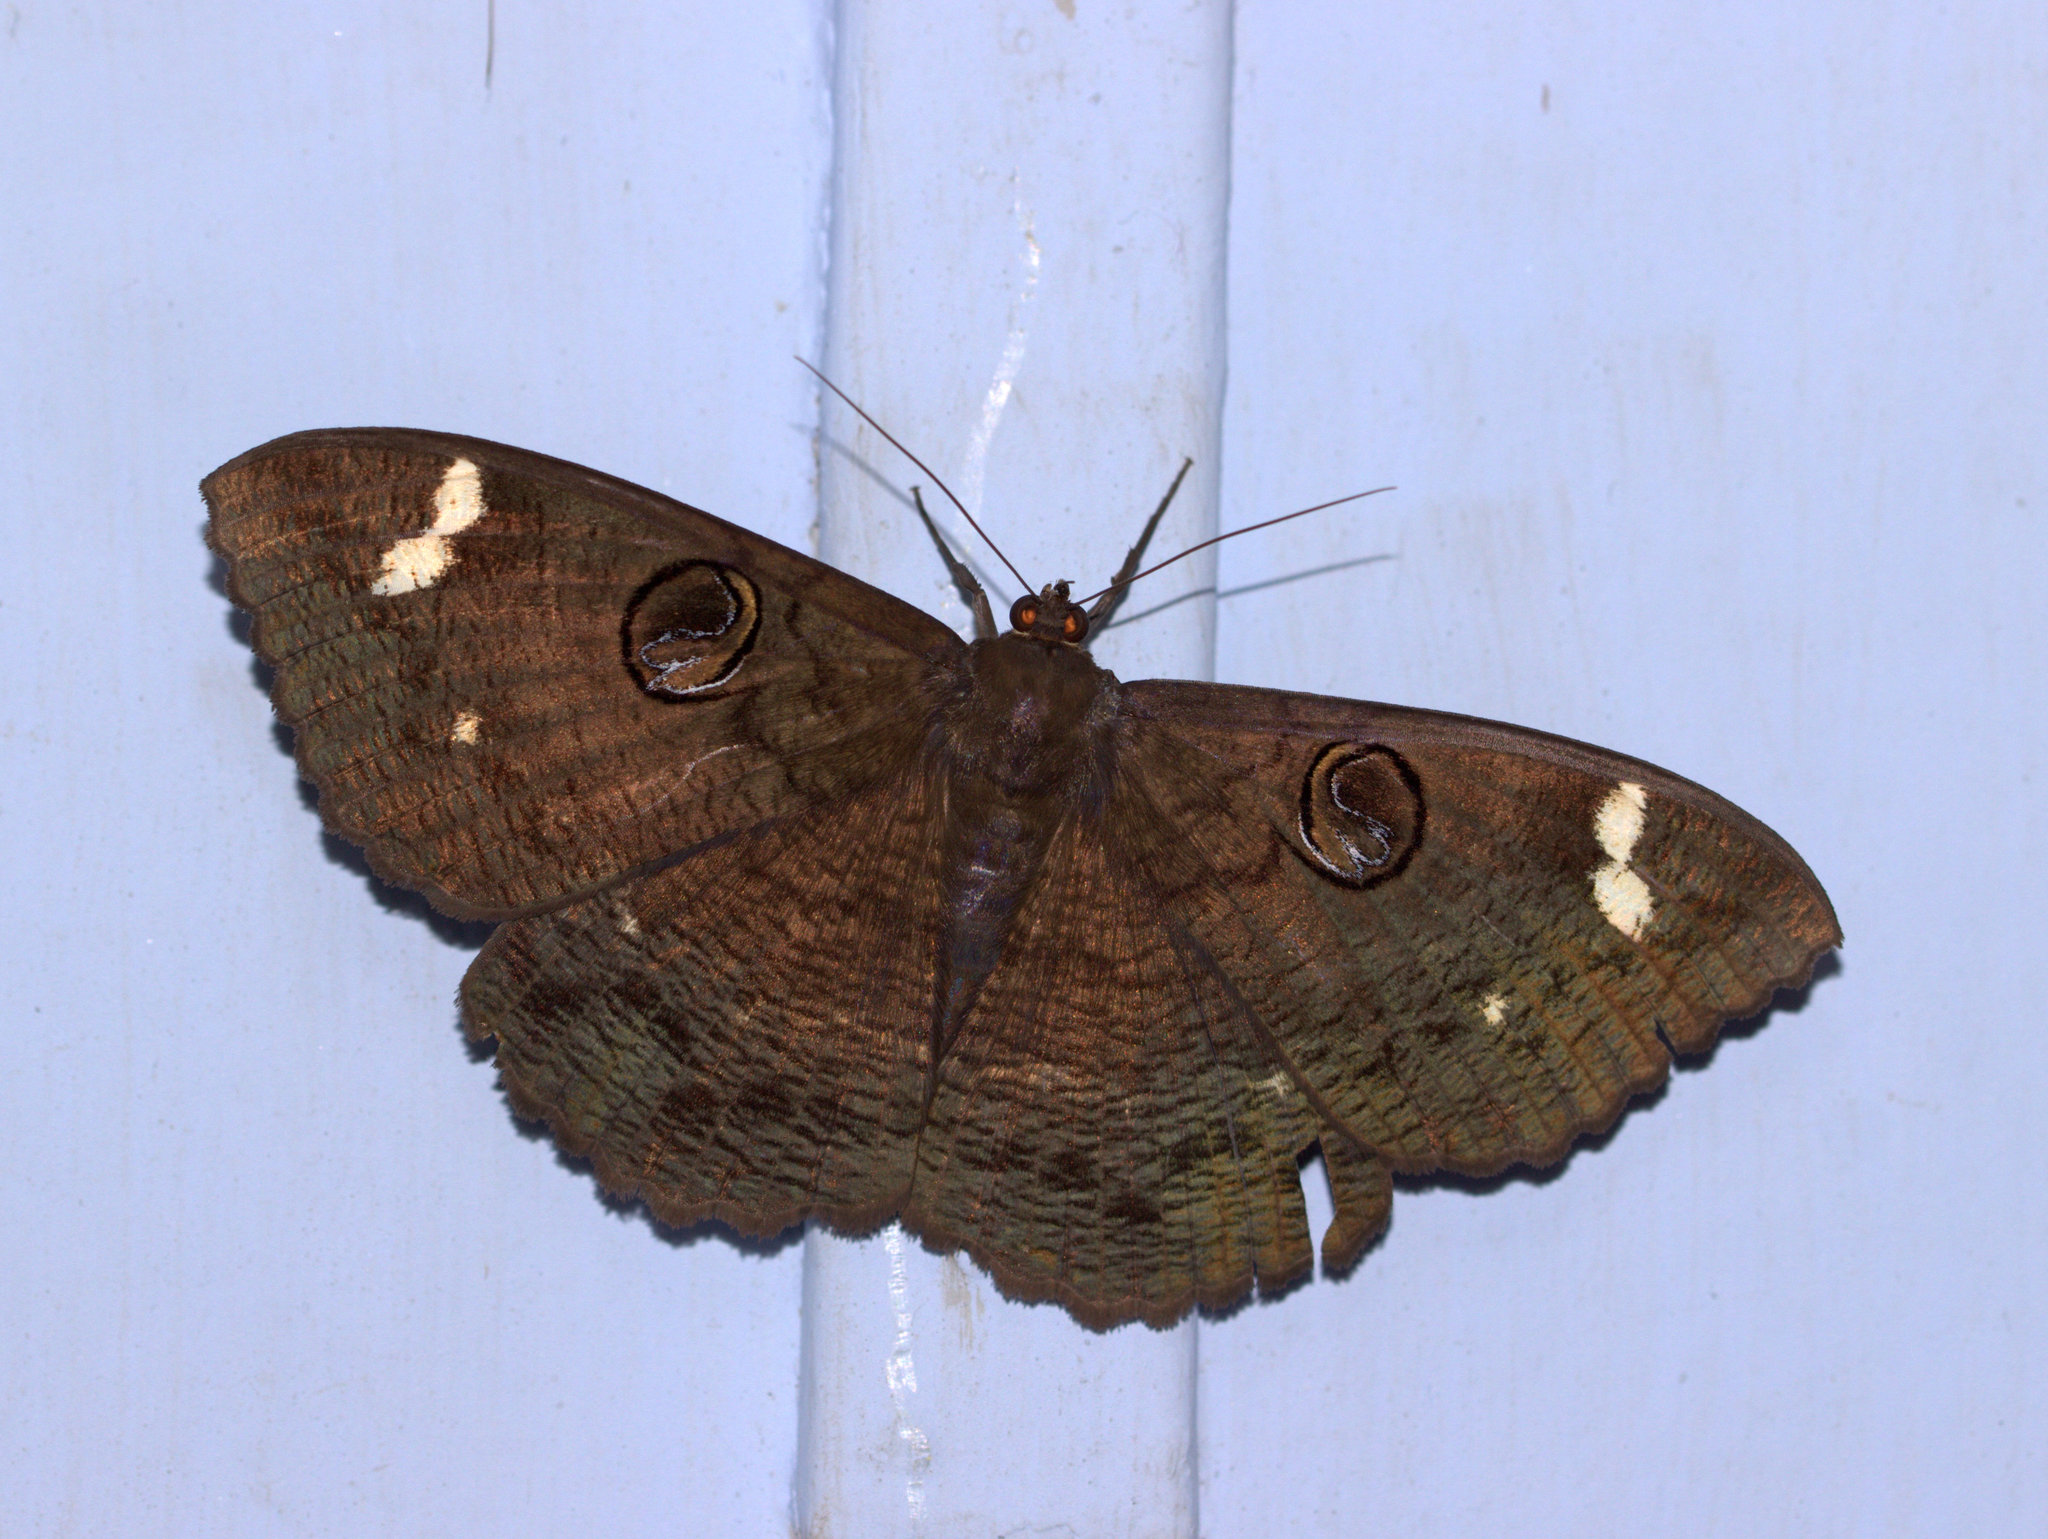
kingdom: Animalia
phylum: Arthropoda
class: Insecta
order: Lepidoptera
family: Erebidae
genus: Erebus
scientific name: Erebus hieroglyphica
